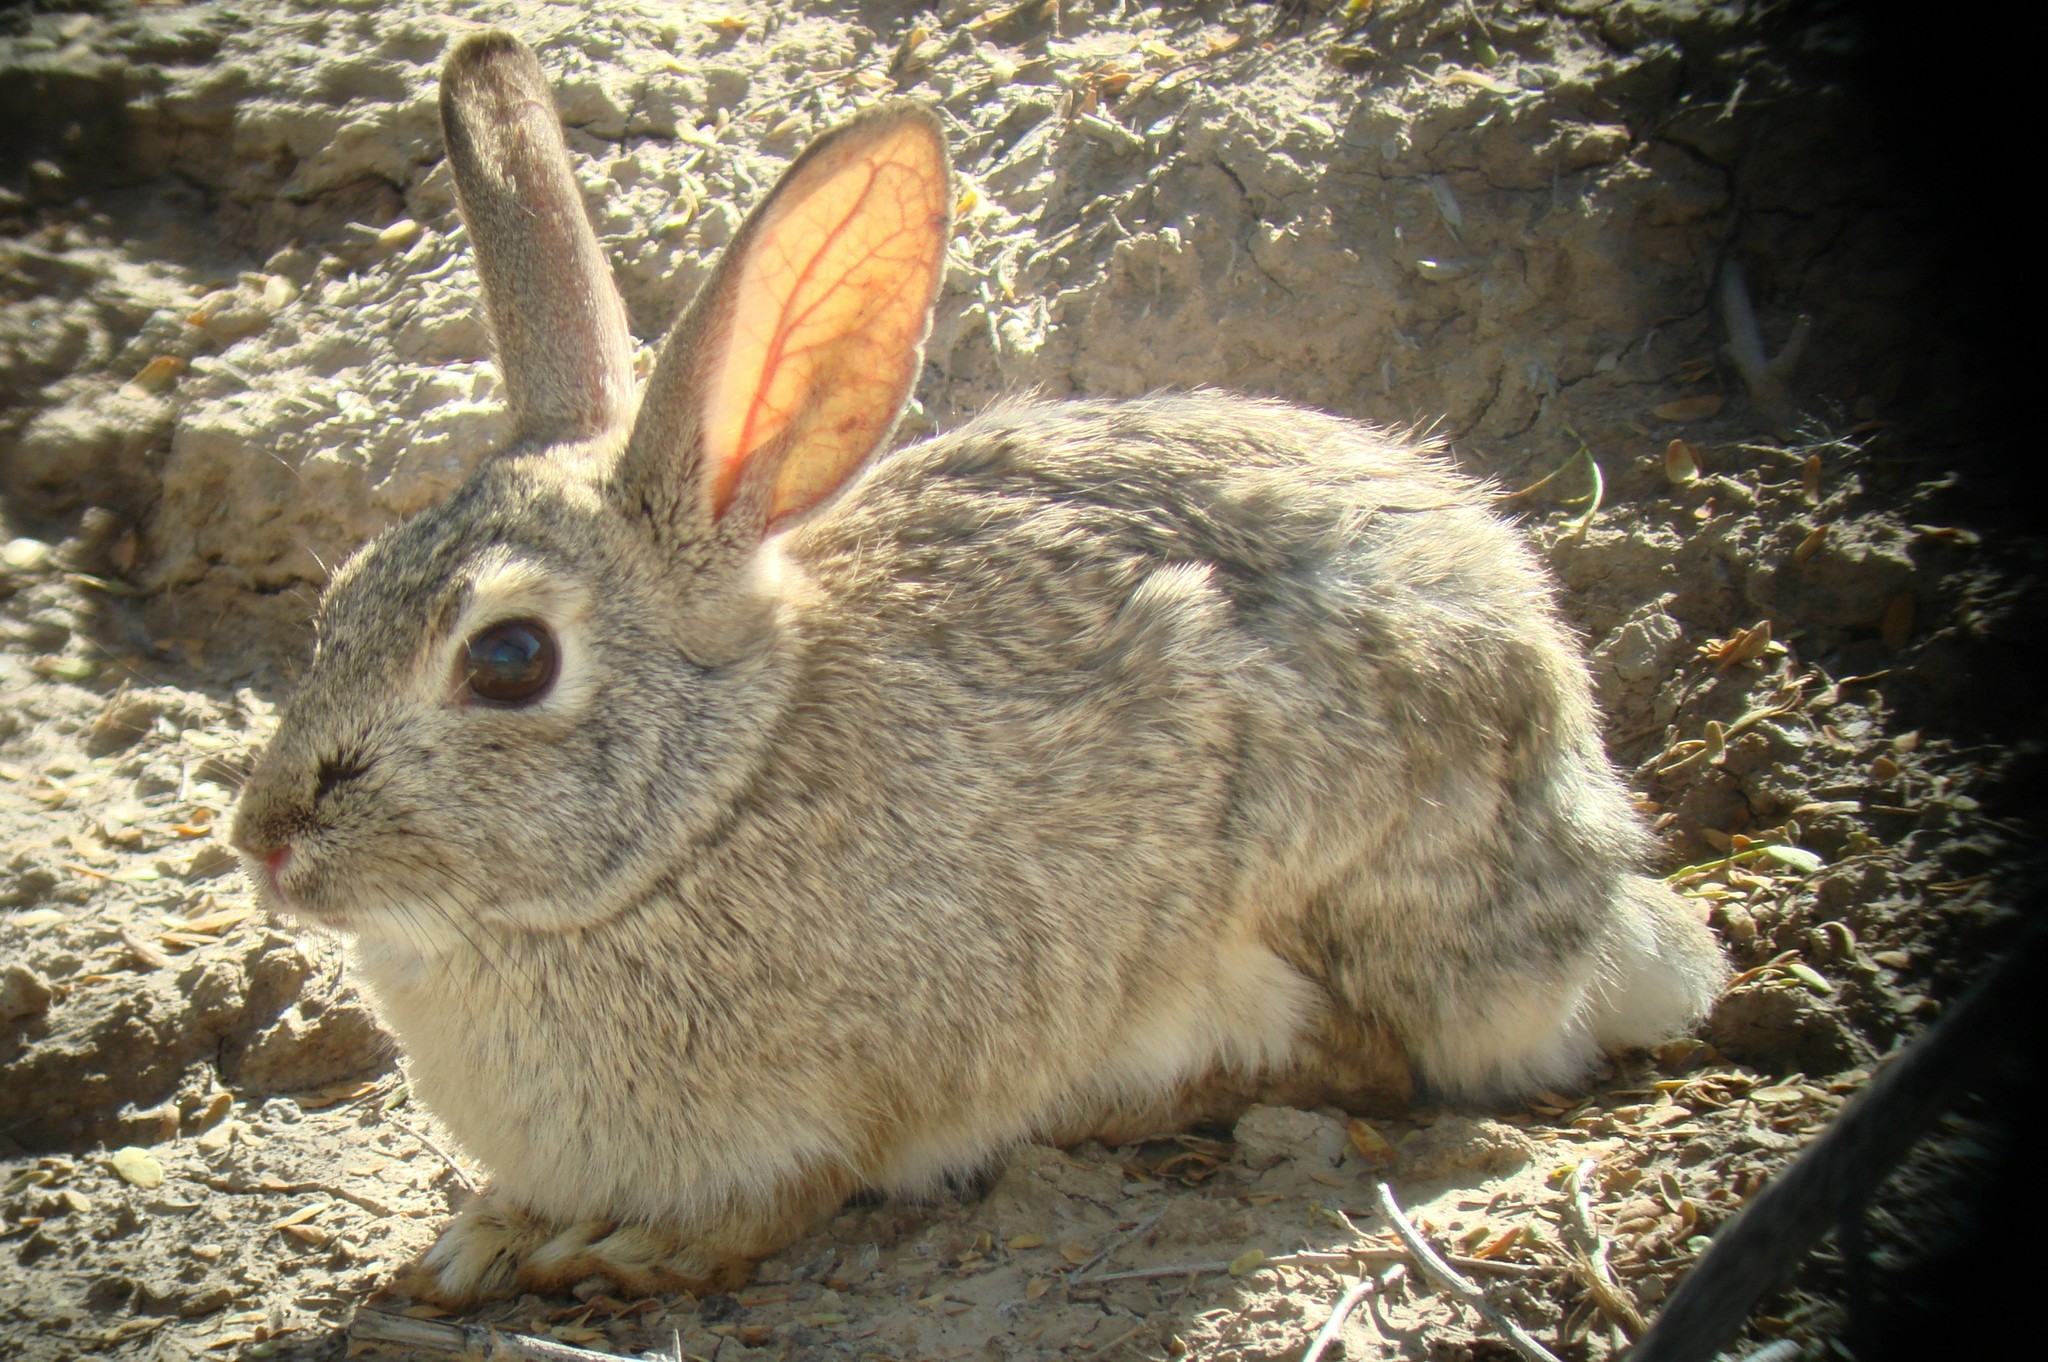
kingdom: Animalia
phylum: Chordata
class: Mammalia
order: Lagomorpha
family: Leporidae
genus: Sylvilagus
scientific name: Sylvilagus audubonii
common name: Desert cottontail
